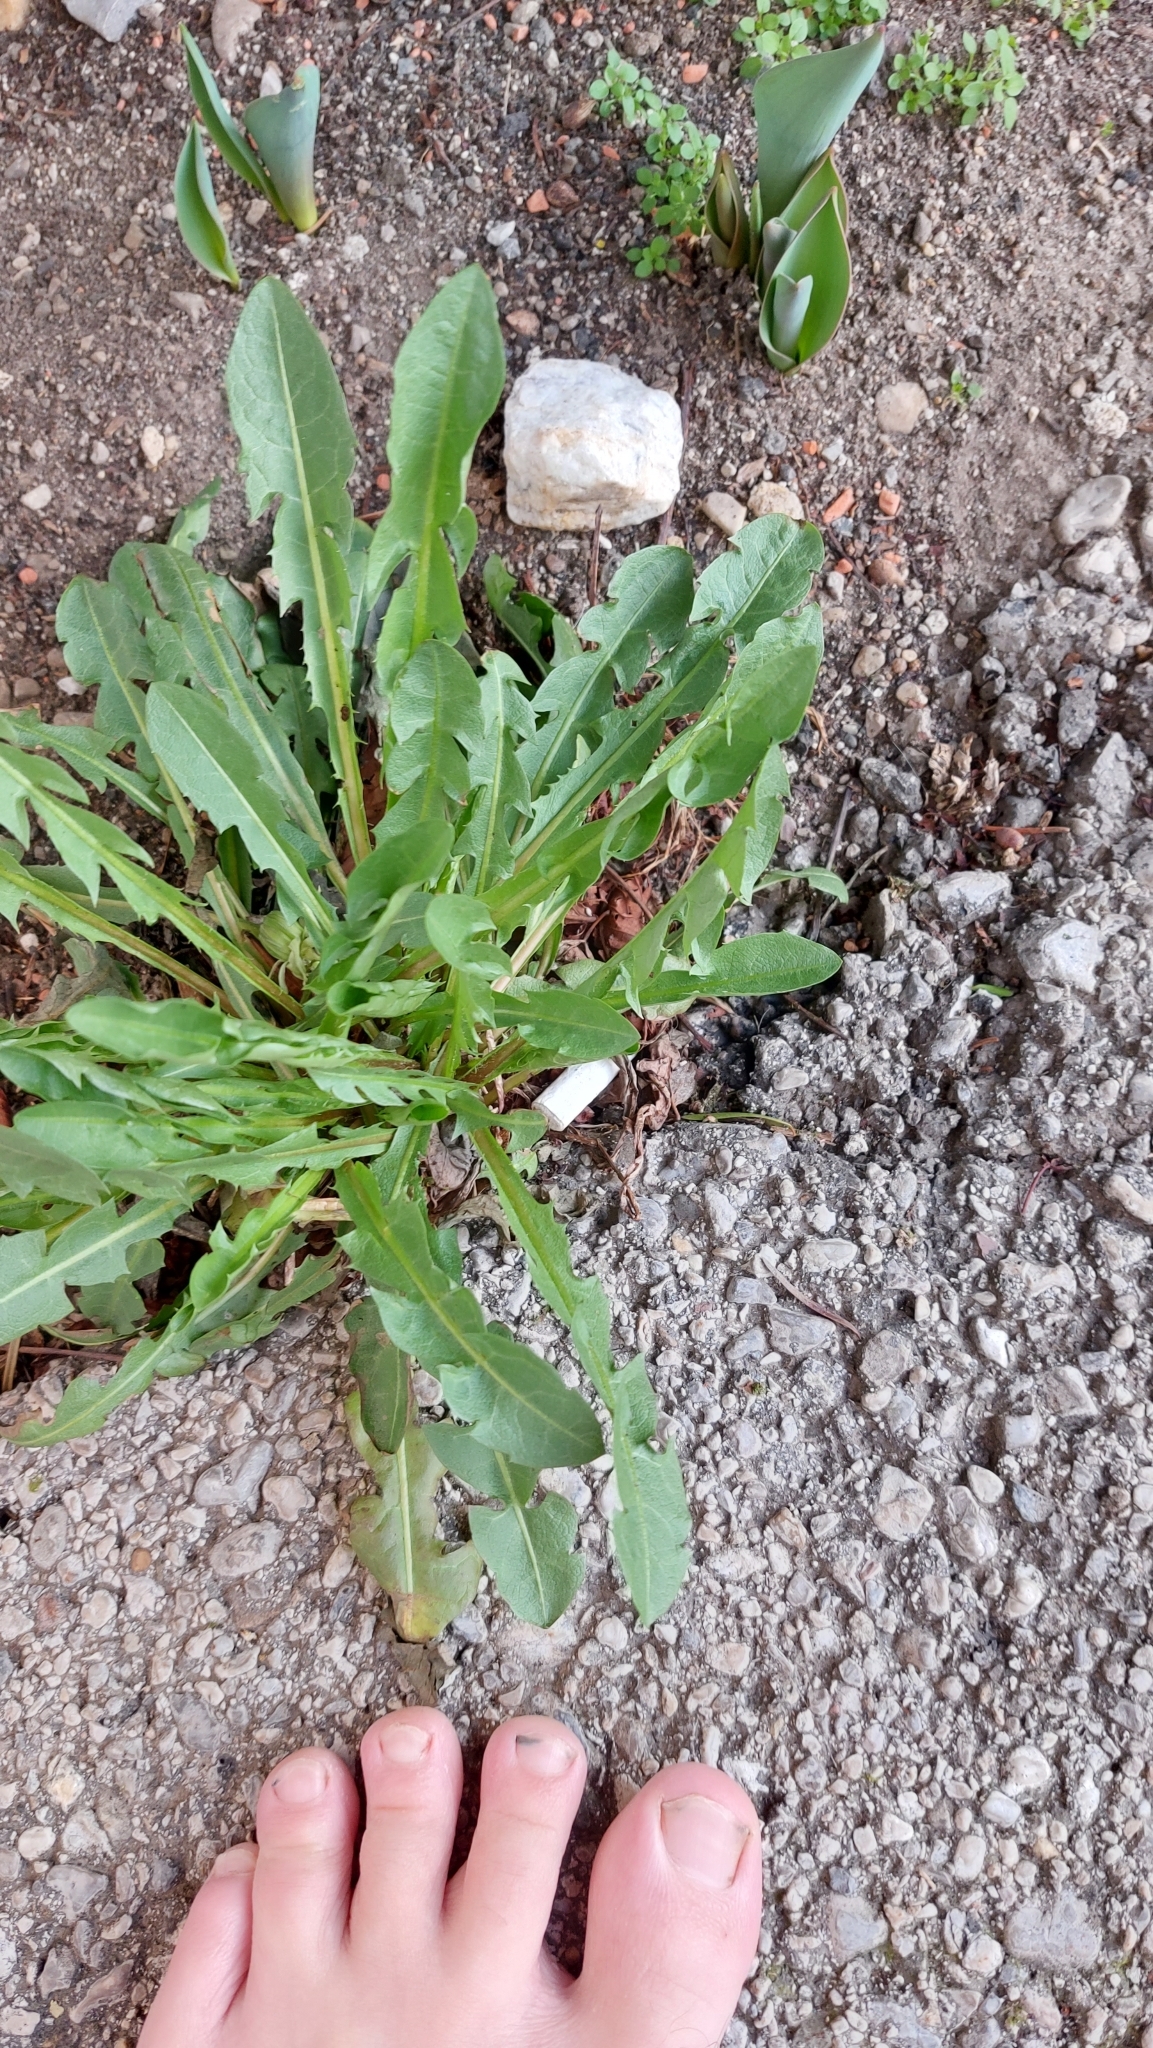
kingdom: Plantae
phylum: Tracheophyta
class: Magnoliopsida
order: Asterales
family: Asteraceae
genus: Taraxacum
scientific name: Taraxacum
